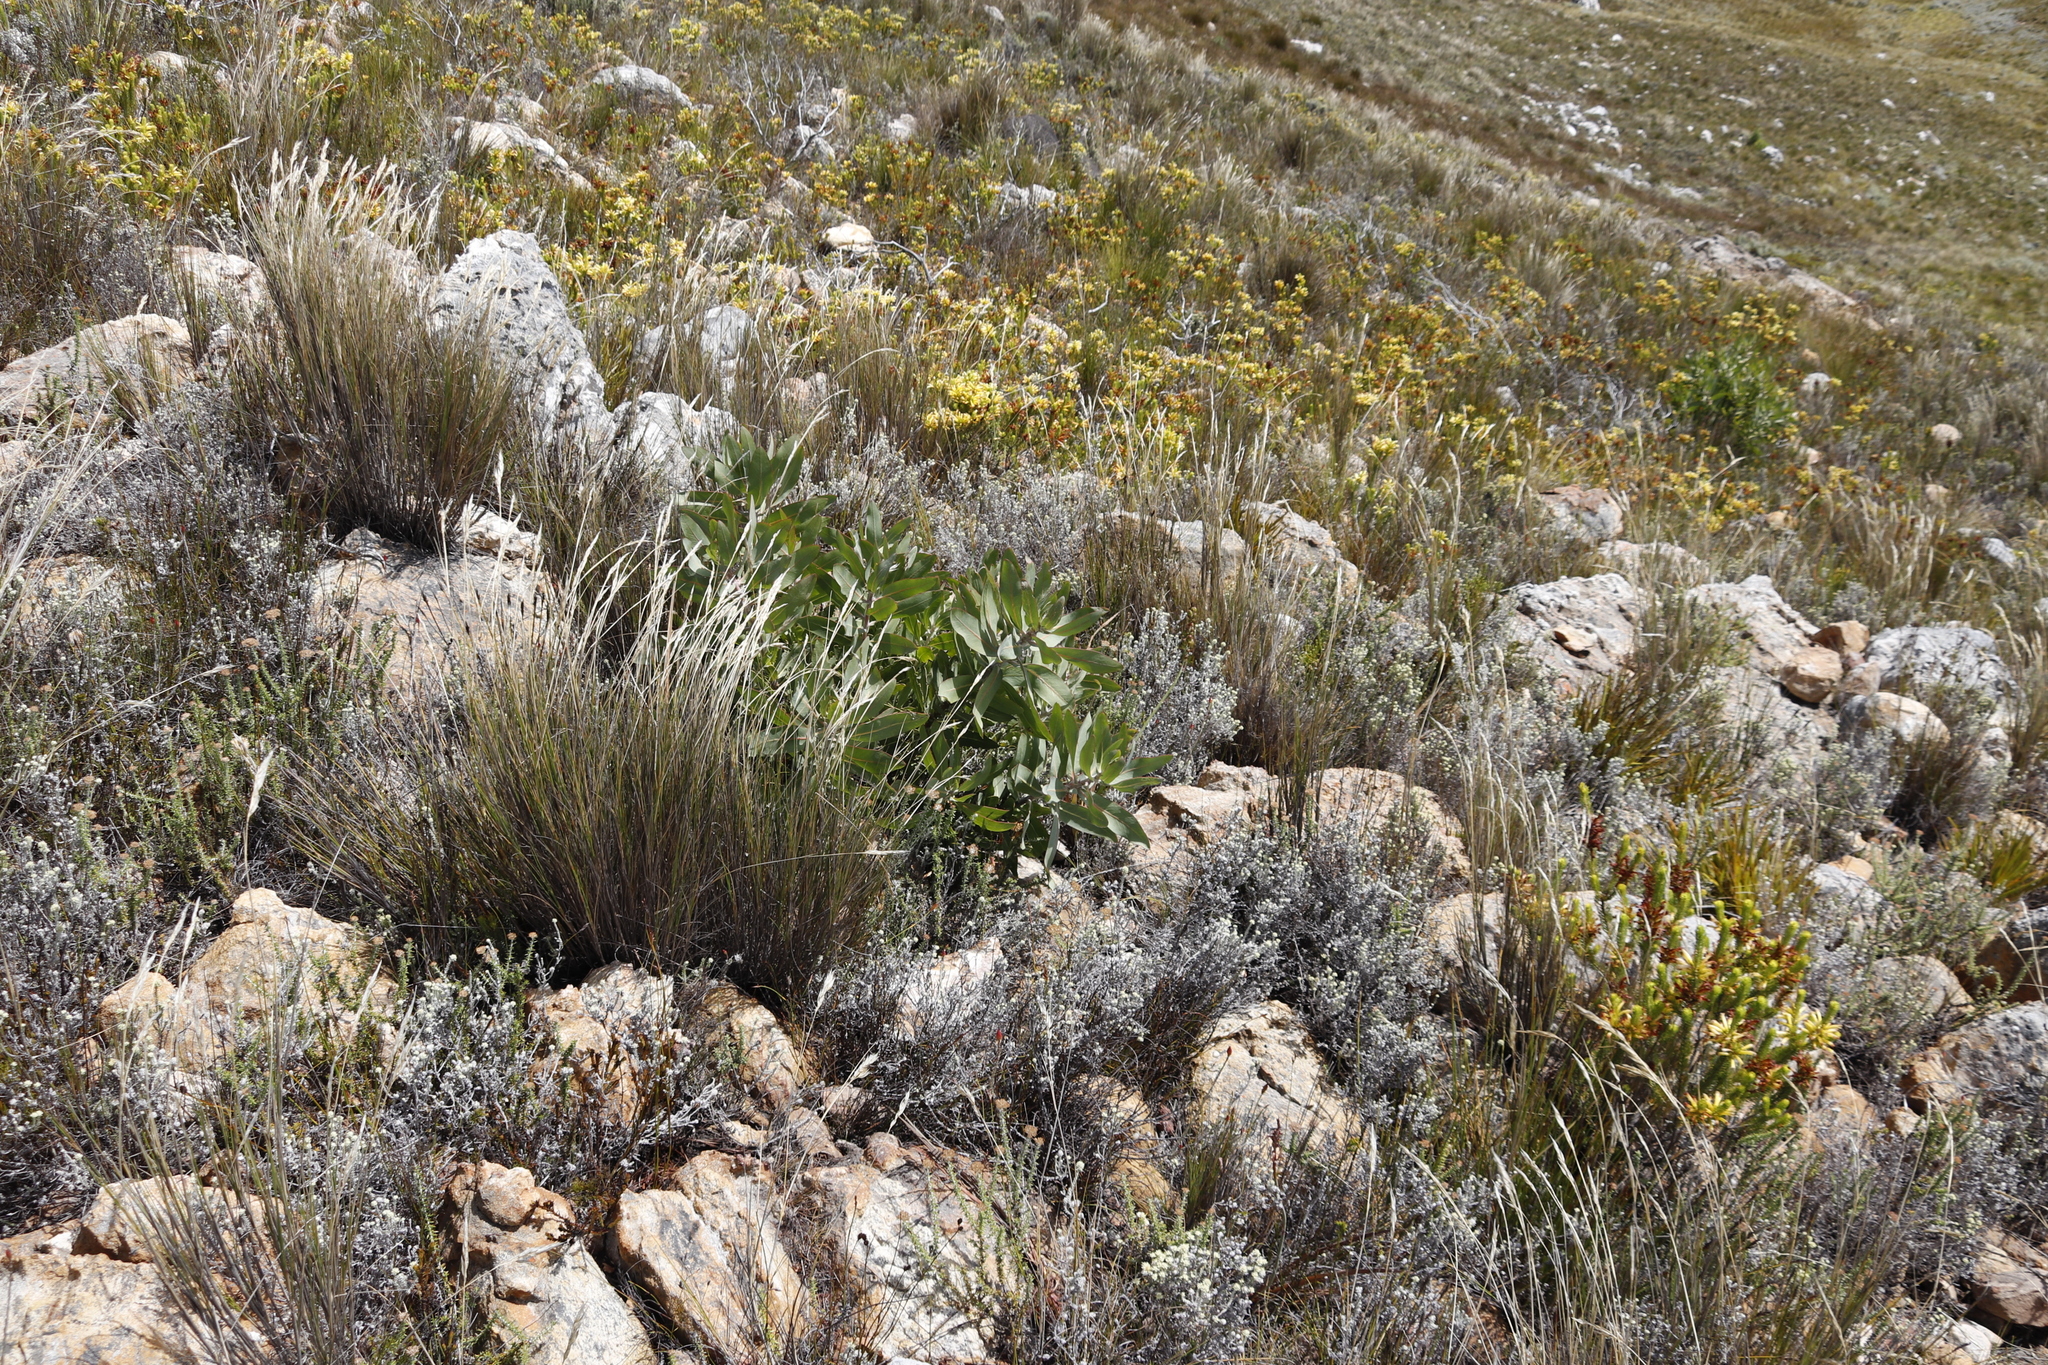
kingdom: Plantae
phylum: Tracheophyta
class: Magnoliopsida
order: Proteales
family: Proteaceae
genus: Protea
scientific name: Protea grandiceps
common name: Red sugarbush
